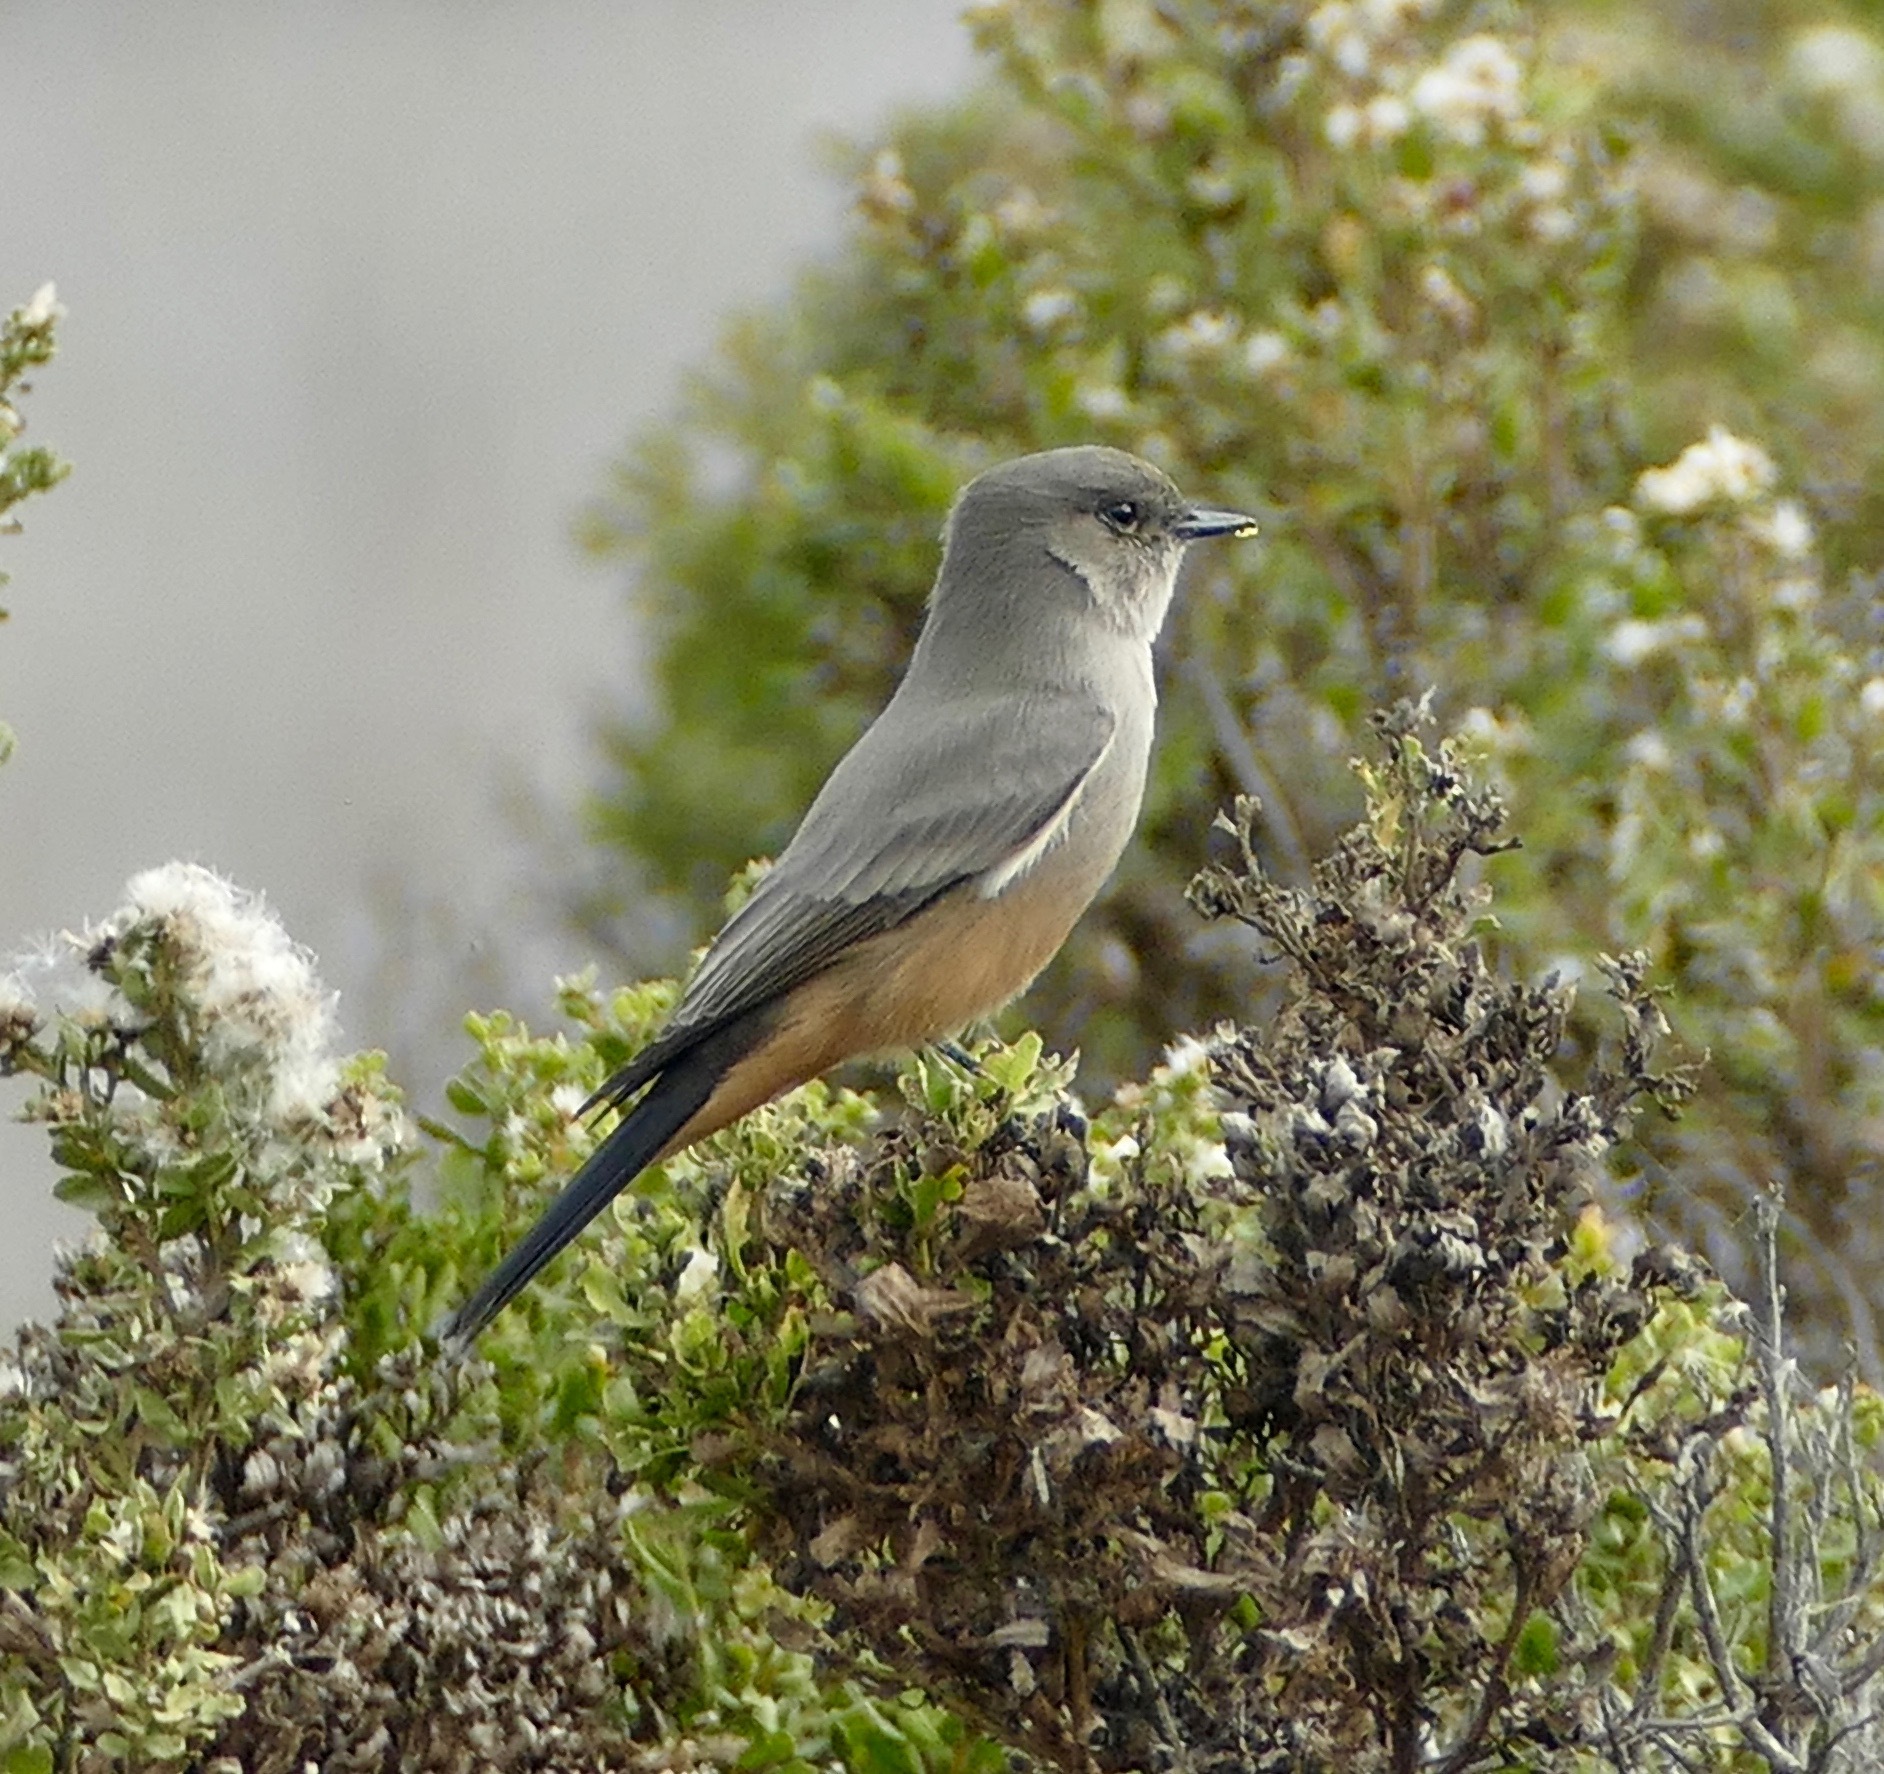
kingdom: Animalia
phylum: Chordata
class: Aves
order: Passeriformes
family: Tyrannidae
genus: Sayornis
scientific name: Sayornis saya
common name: Say's phoebe
